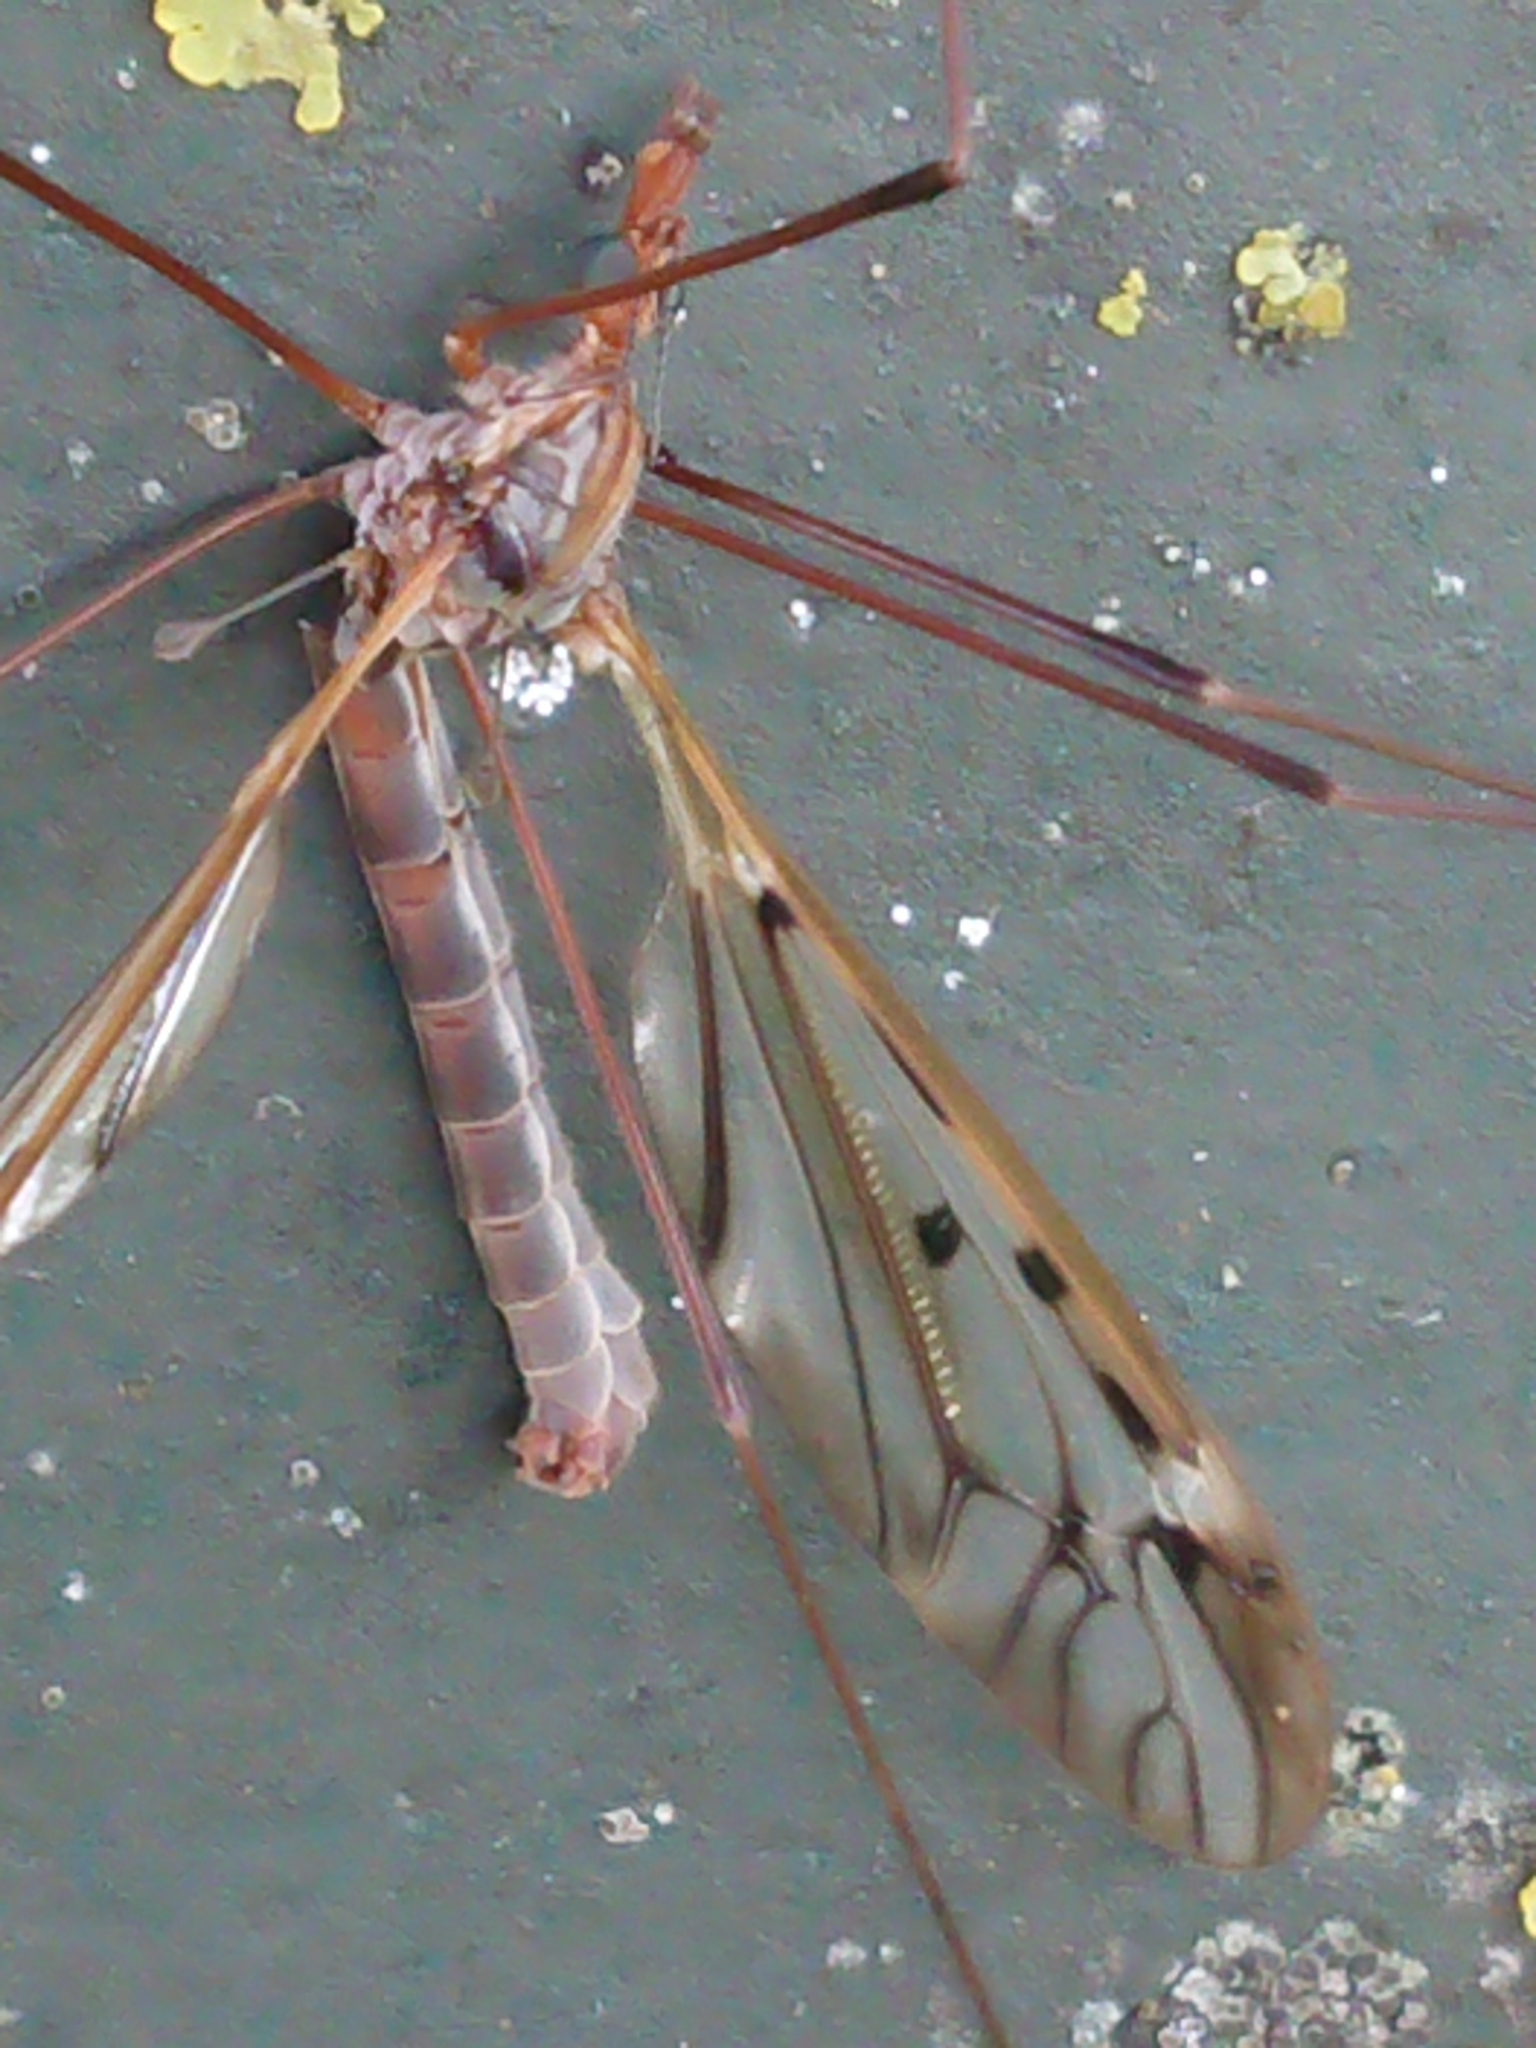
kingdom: Animalia
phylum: Arthropoda
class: Insecta
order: Diptera
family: Tipulidae
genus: Zelandotipula
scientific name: Zelandotipula novarae
